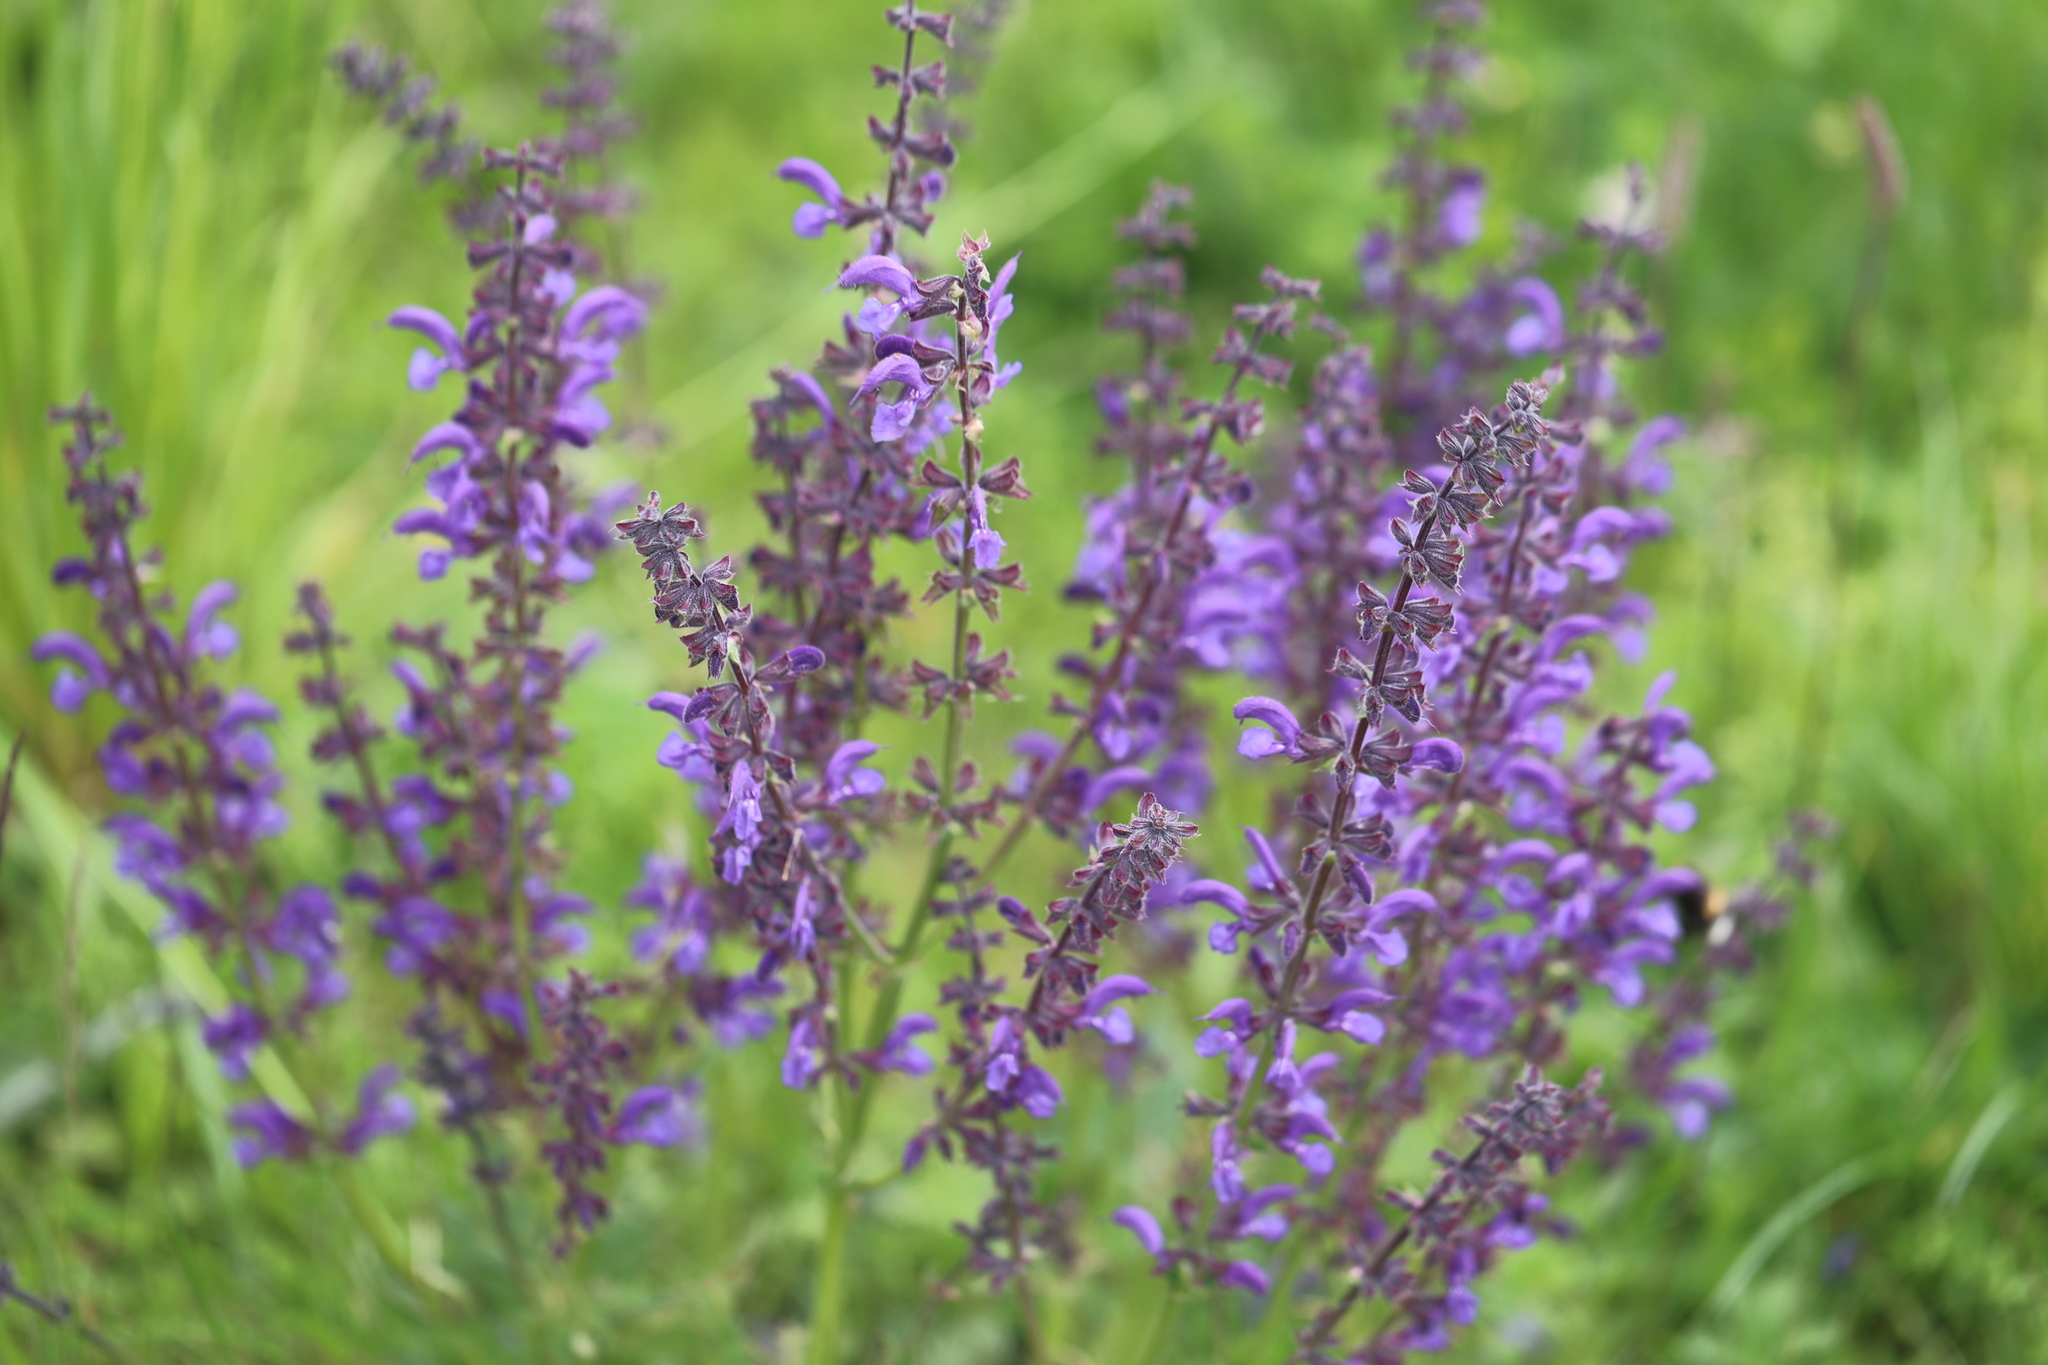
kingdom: Plantae
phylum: Tracheophyta
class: Magnoliopsida
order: Lamiales
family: Lamiaceae
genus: Salvia
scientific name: Salvia pratensis
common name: Meadow sage
